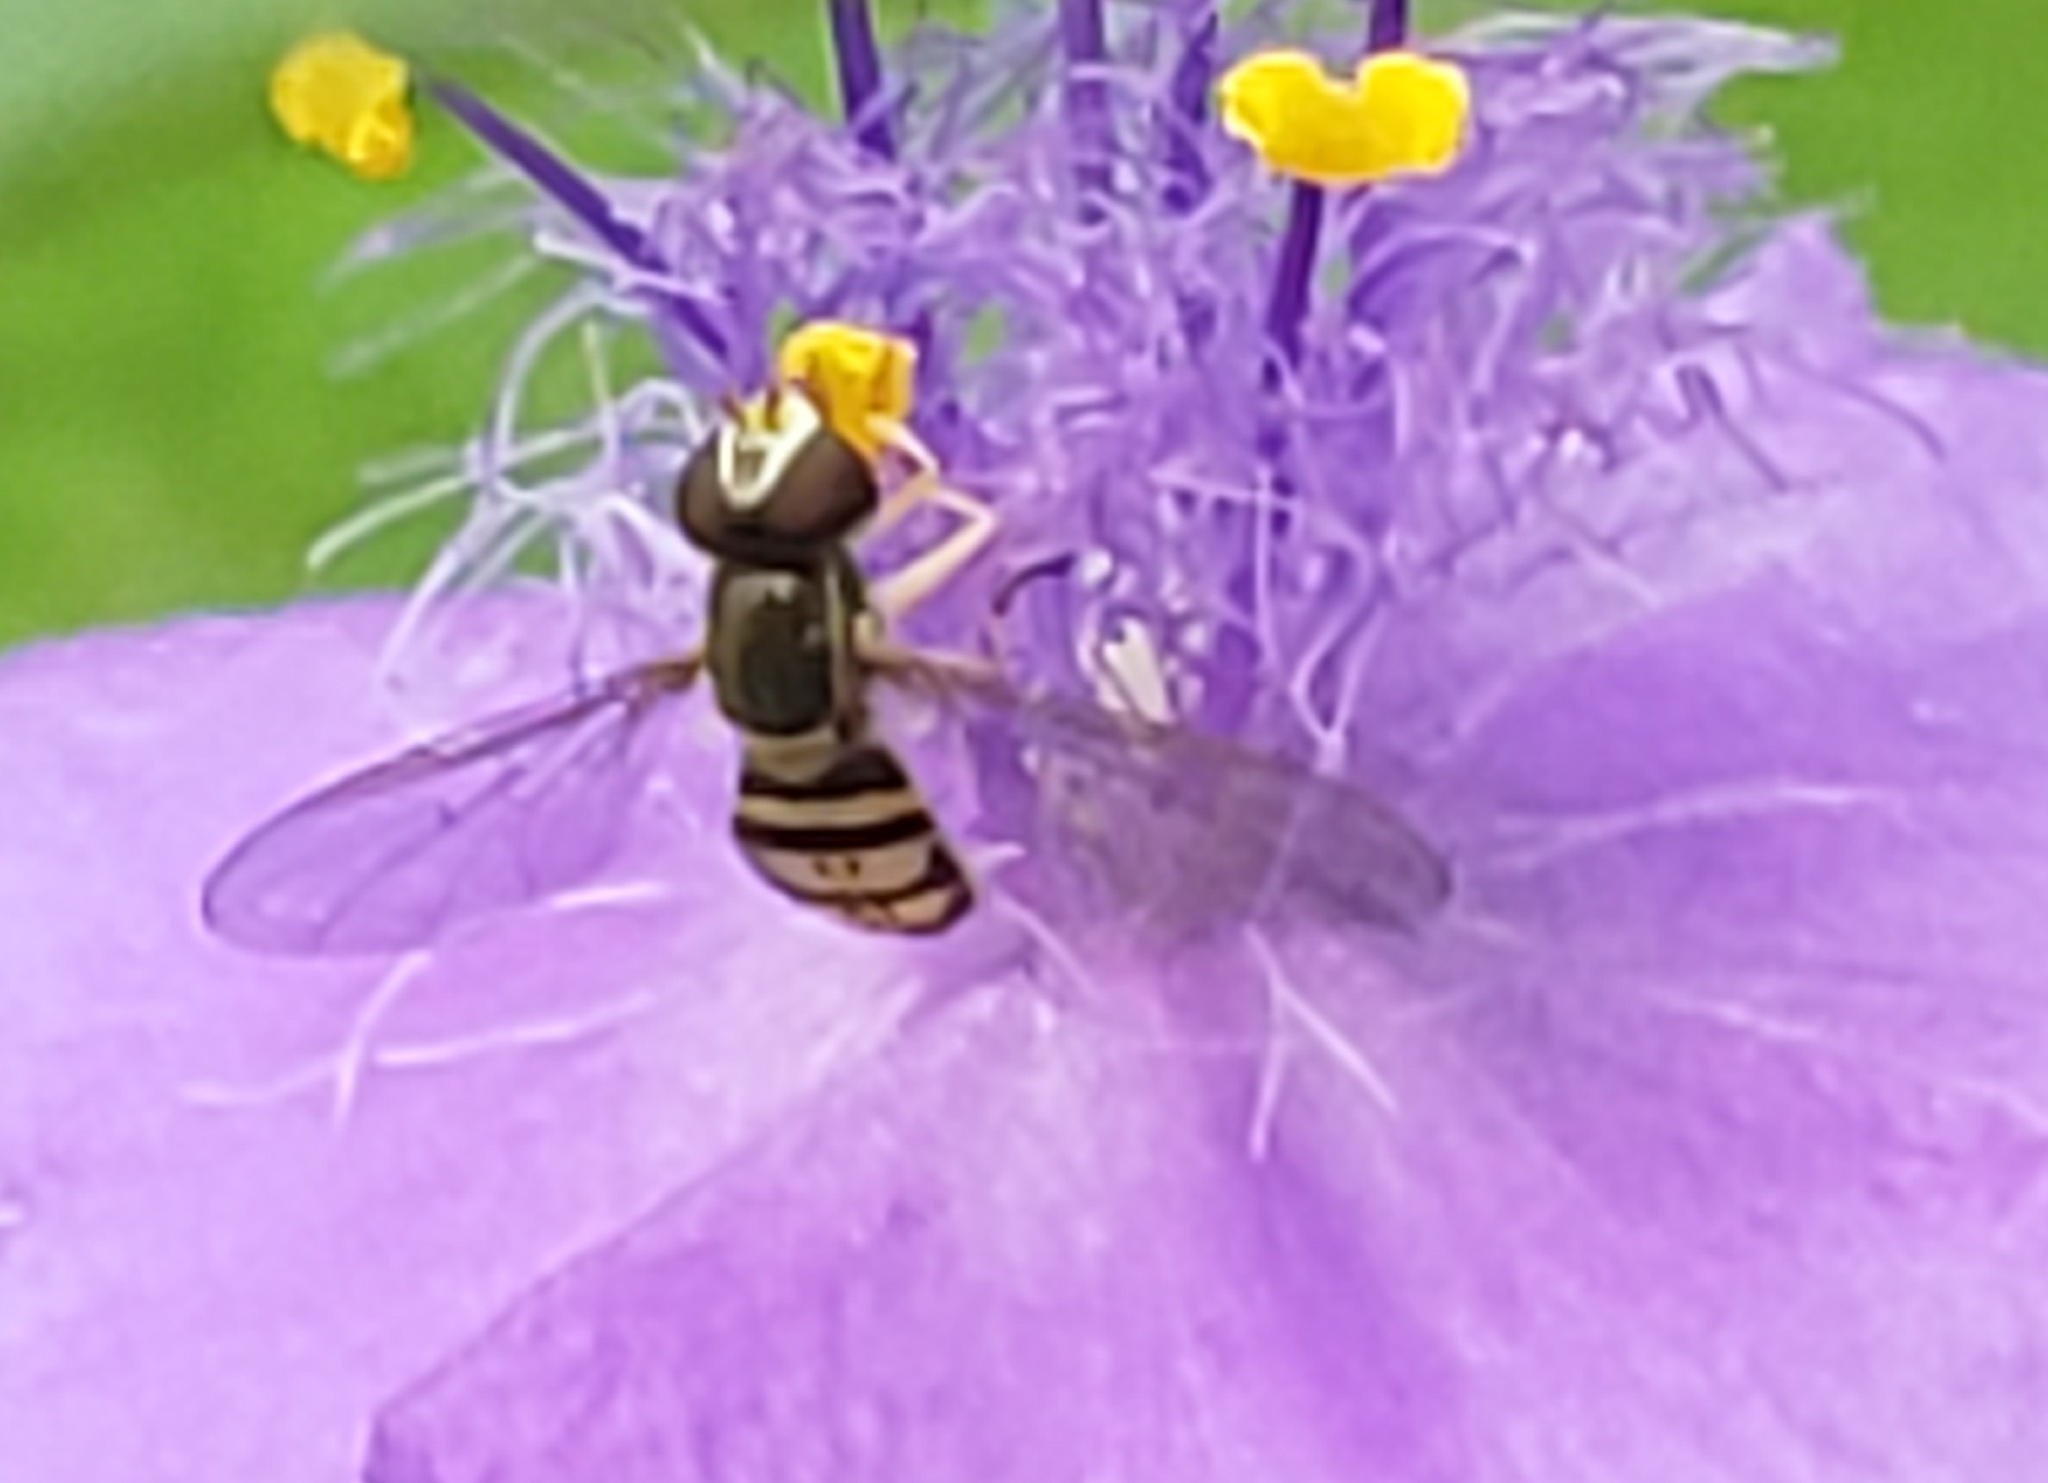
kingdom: Animalia
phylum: Arthropoda
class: Insecta
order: Diptera
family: Syrphidae
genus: Toxomerus
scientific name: Toxomerus marginatus
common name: Syrphid fly
